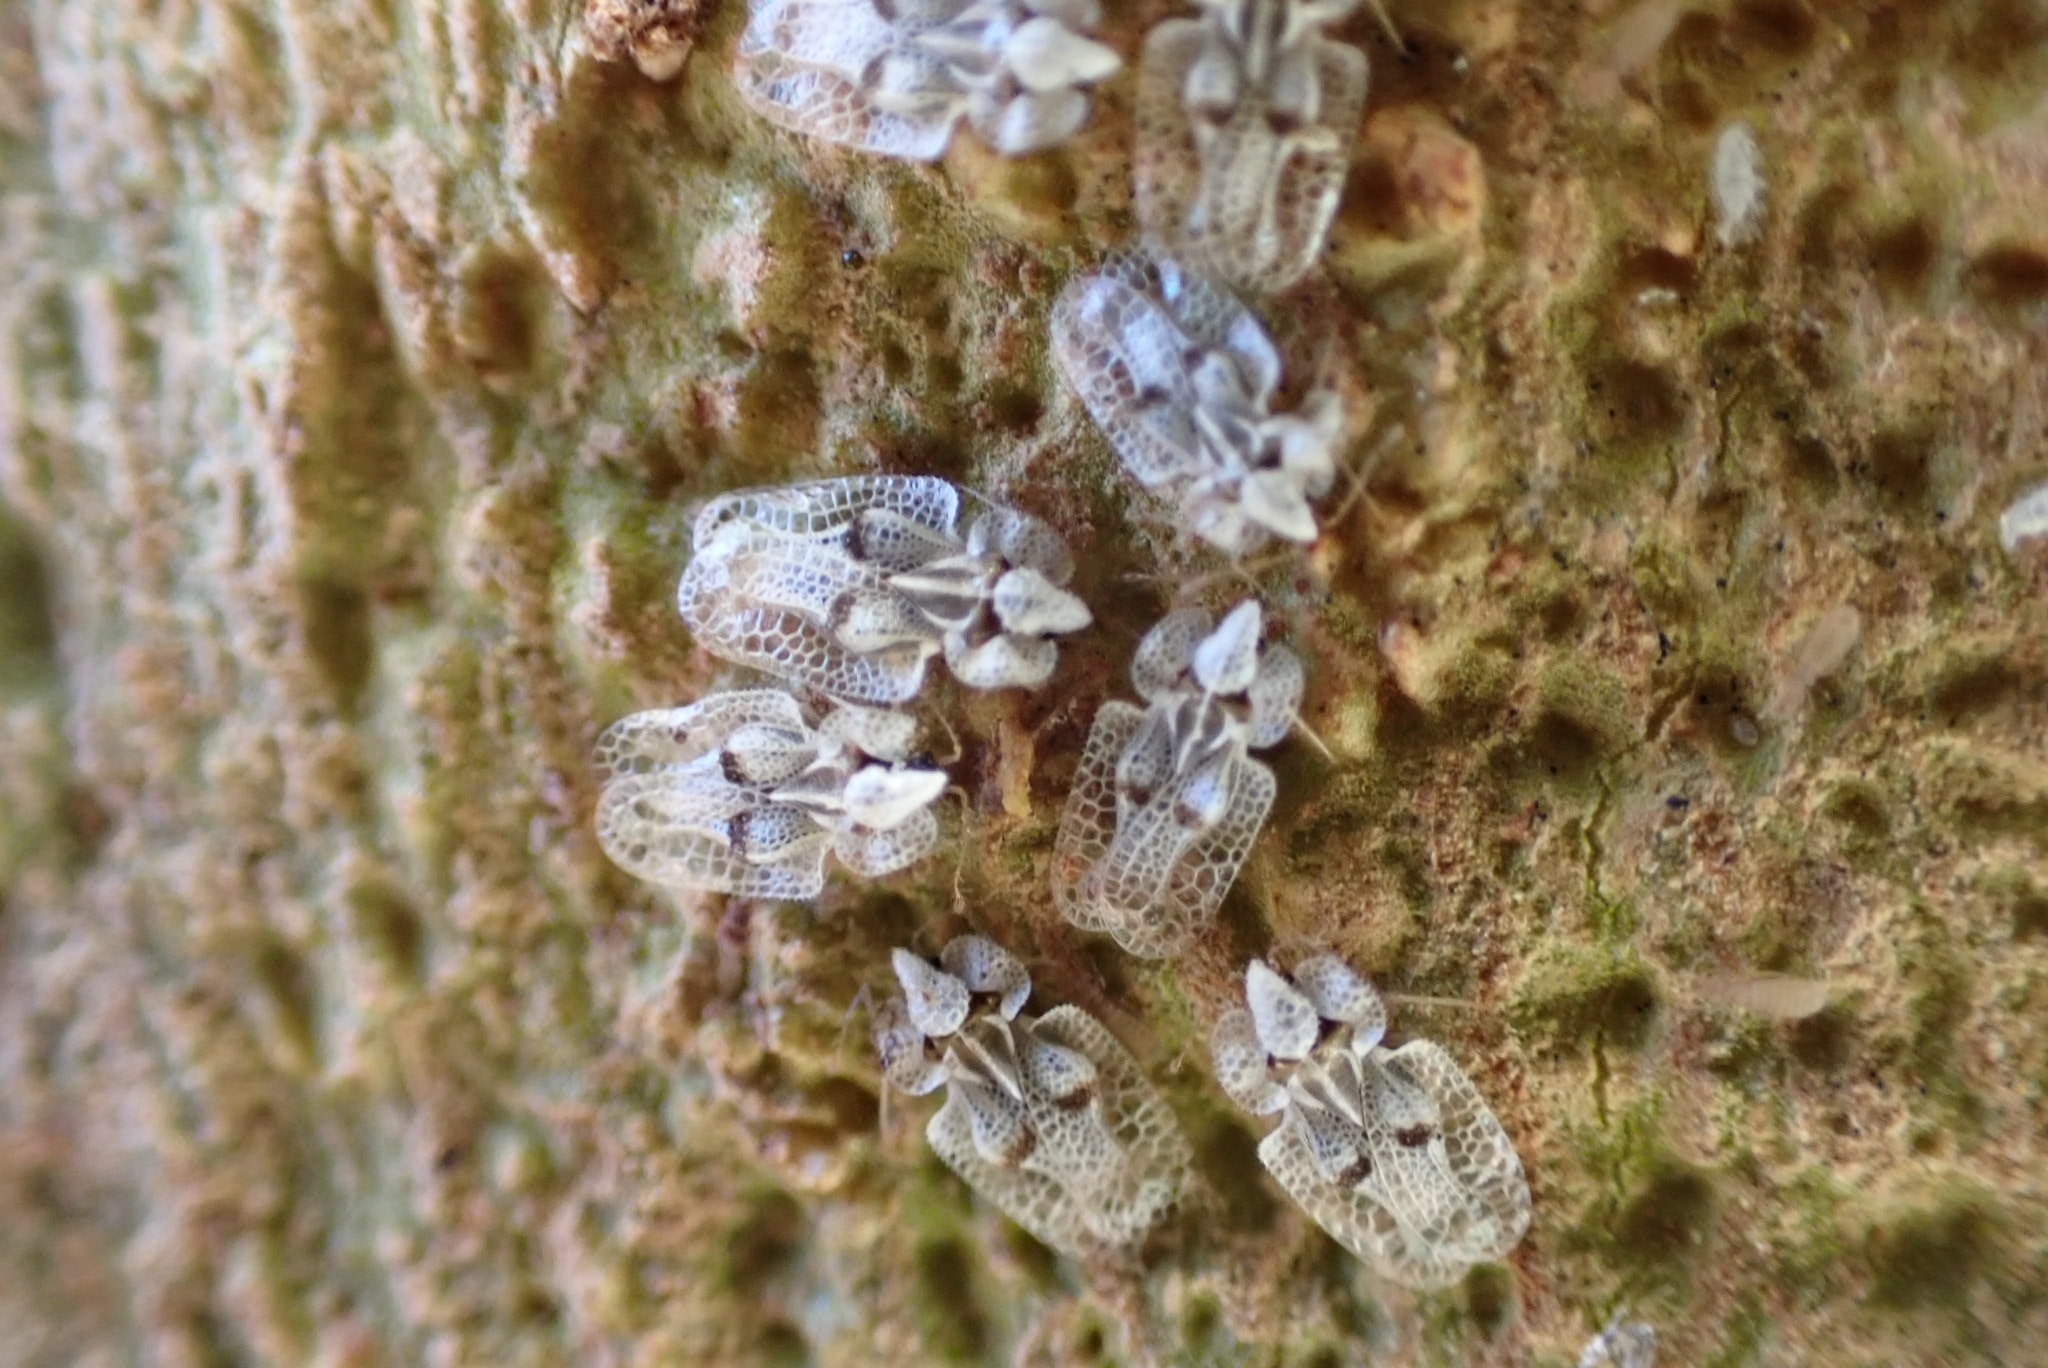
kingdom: Animalia
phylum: Arthropoda
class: Insecta
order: Hemiptera
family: Tingidae
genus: Corythucha
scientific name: Corythucha ciliata
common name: Sycamore lace bug
